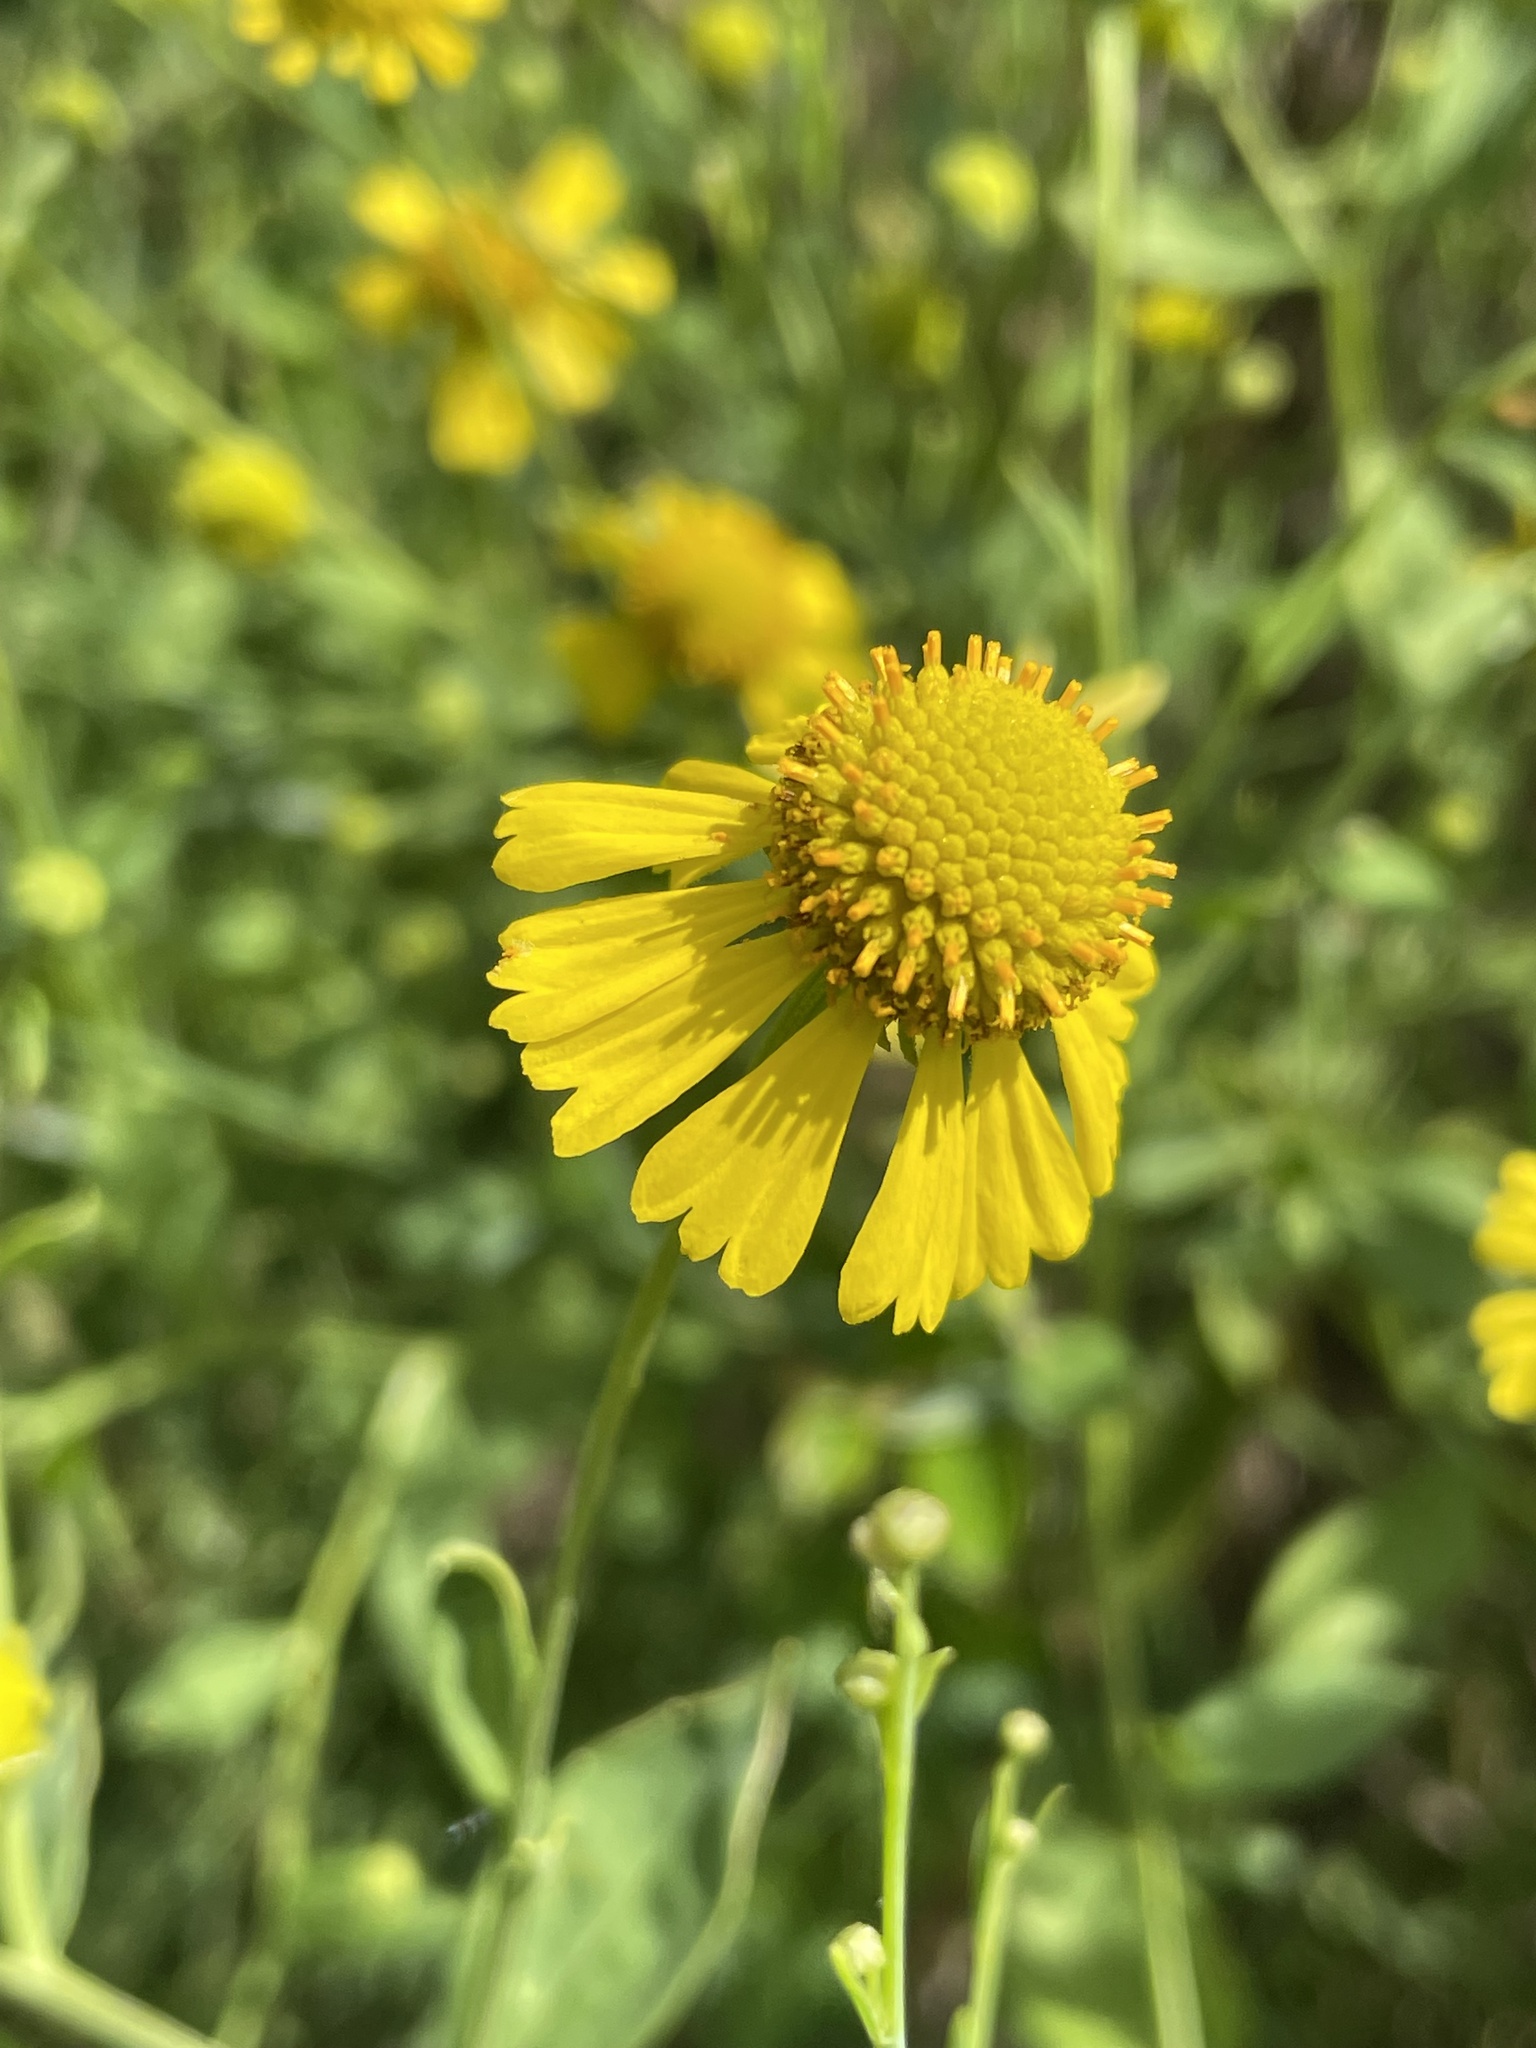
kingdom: Plantae
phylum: Tracheophyta
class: Magnoliopsida
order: Asterales
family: Asteraceae
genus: Helenium
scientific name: Helenium autumnale
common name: Sneezeweed
